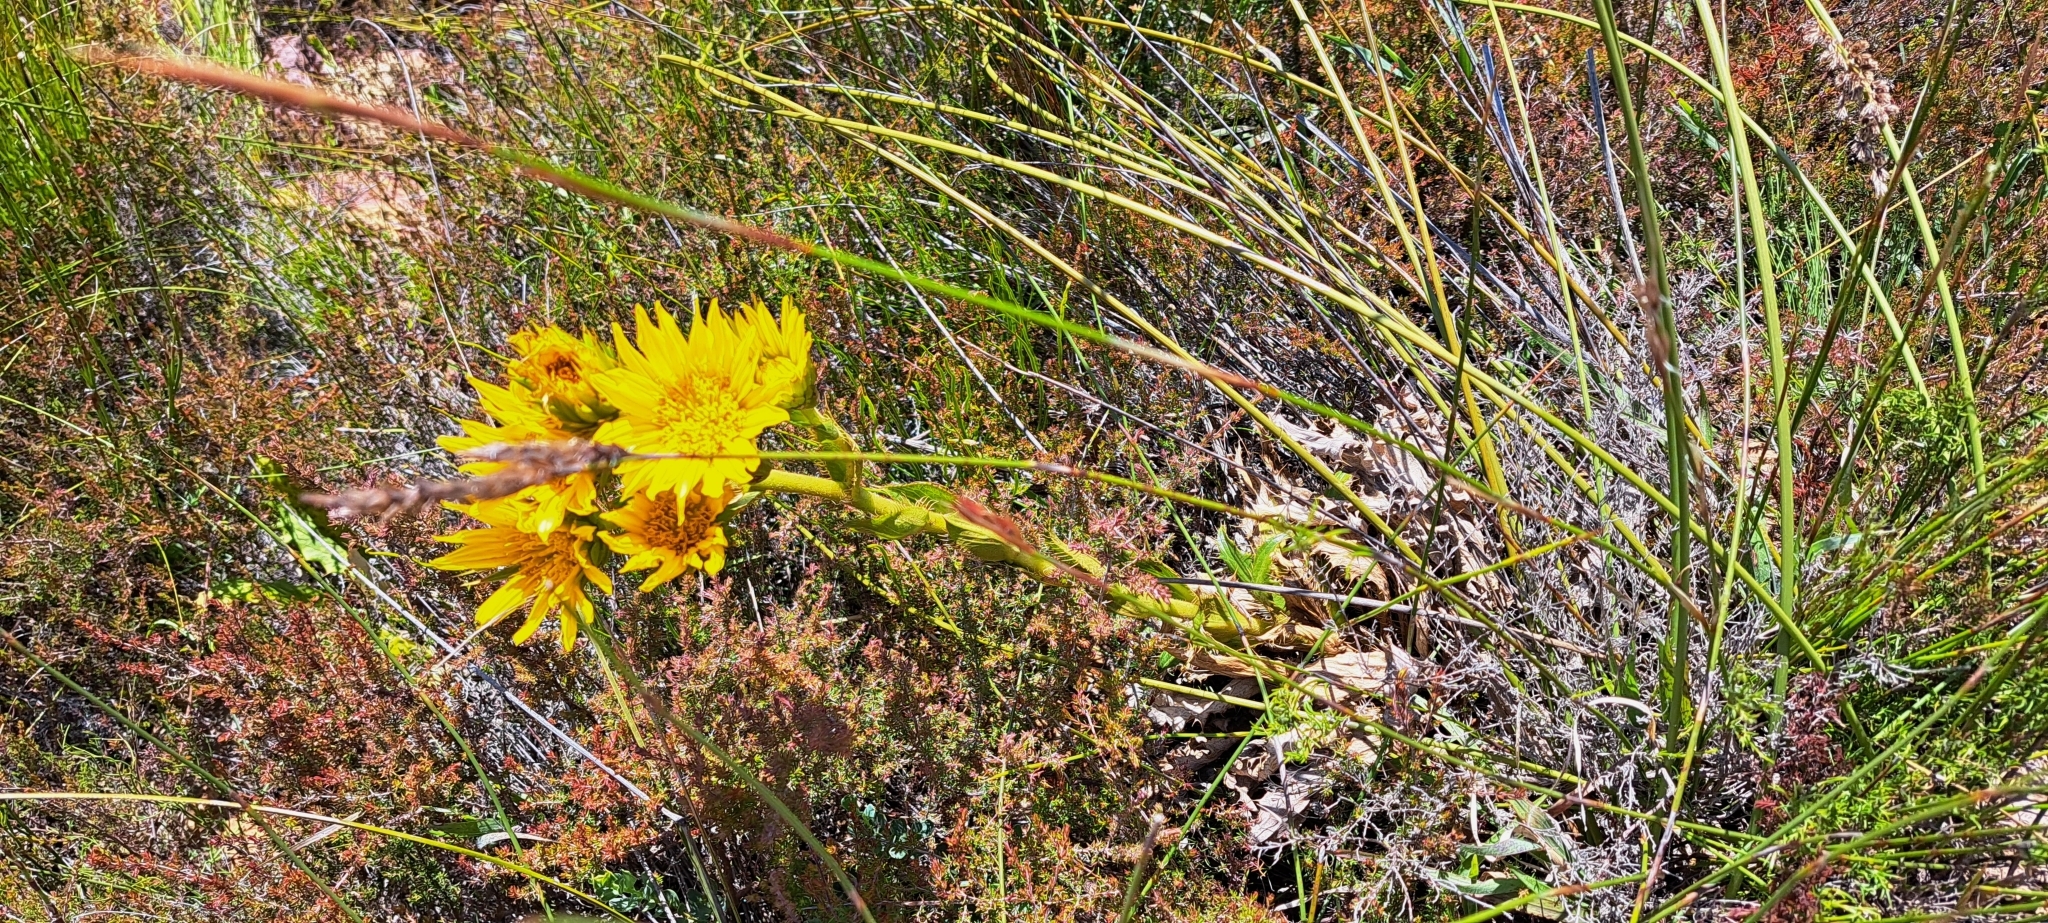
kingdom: Plantae
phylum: Tracheophyta
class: Magnoliopsida
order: Asterales
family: Asteraceae
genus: Berkheya
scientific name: Berkheya armata
